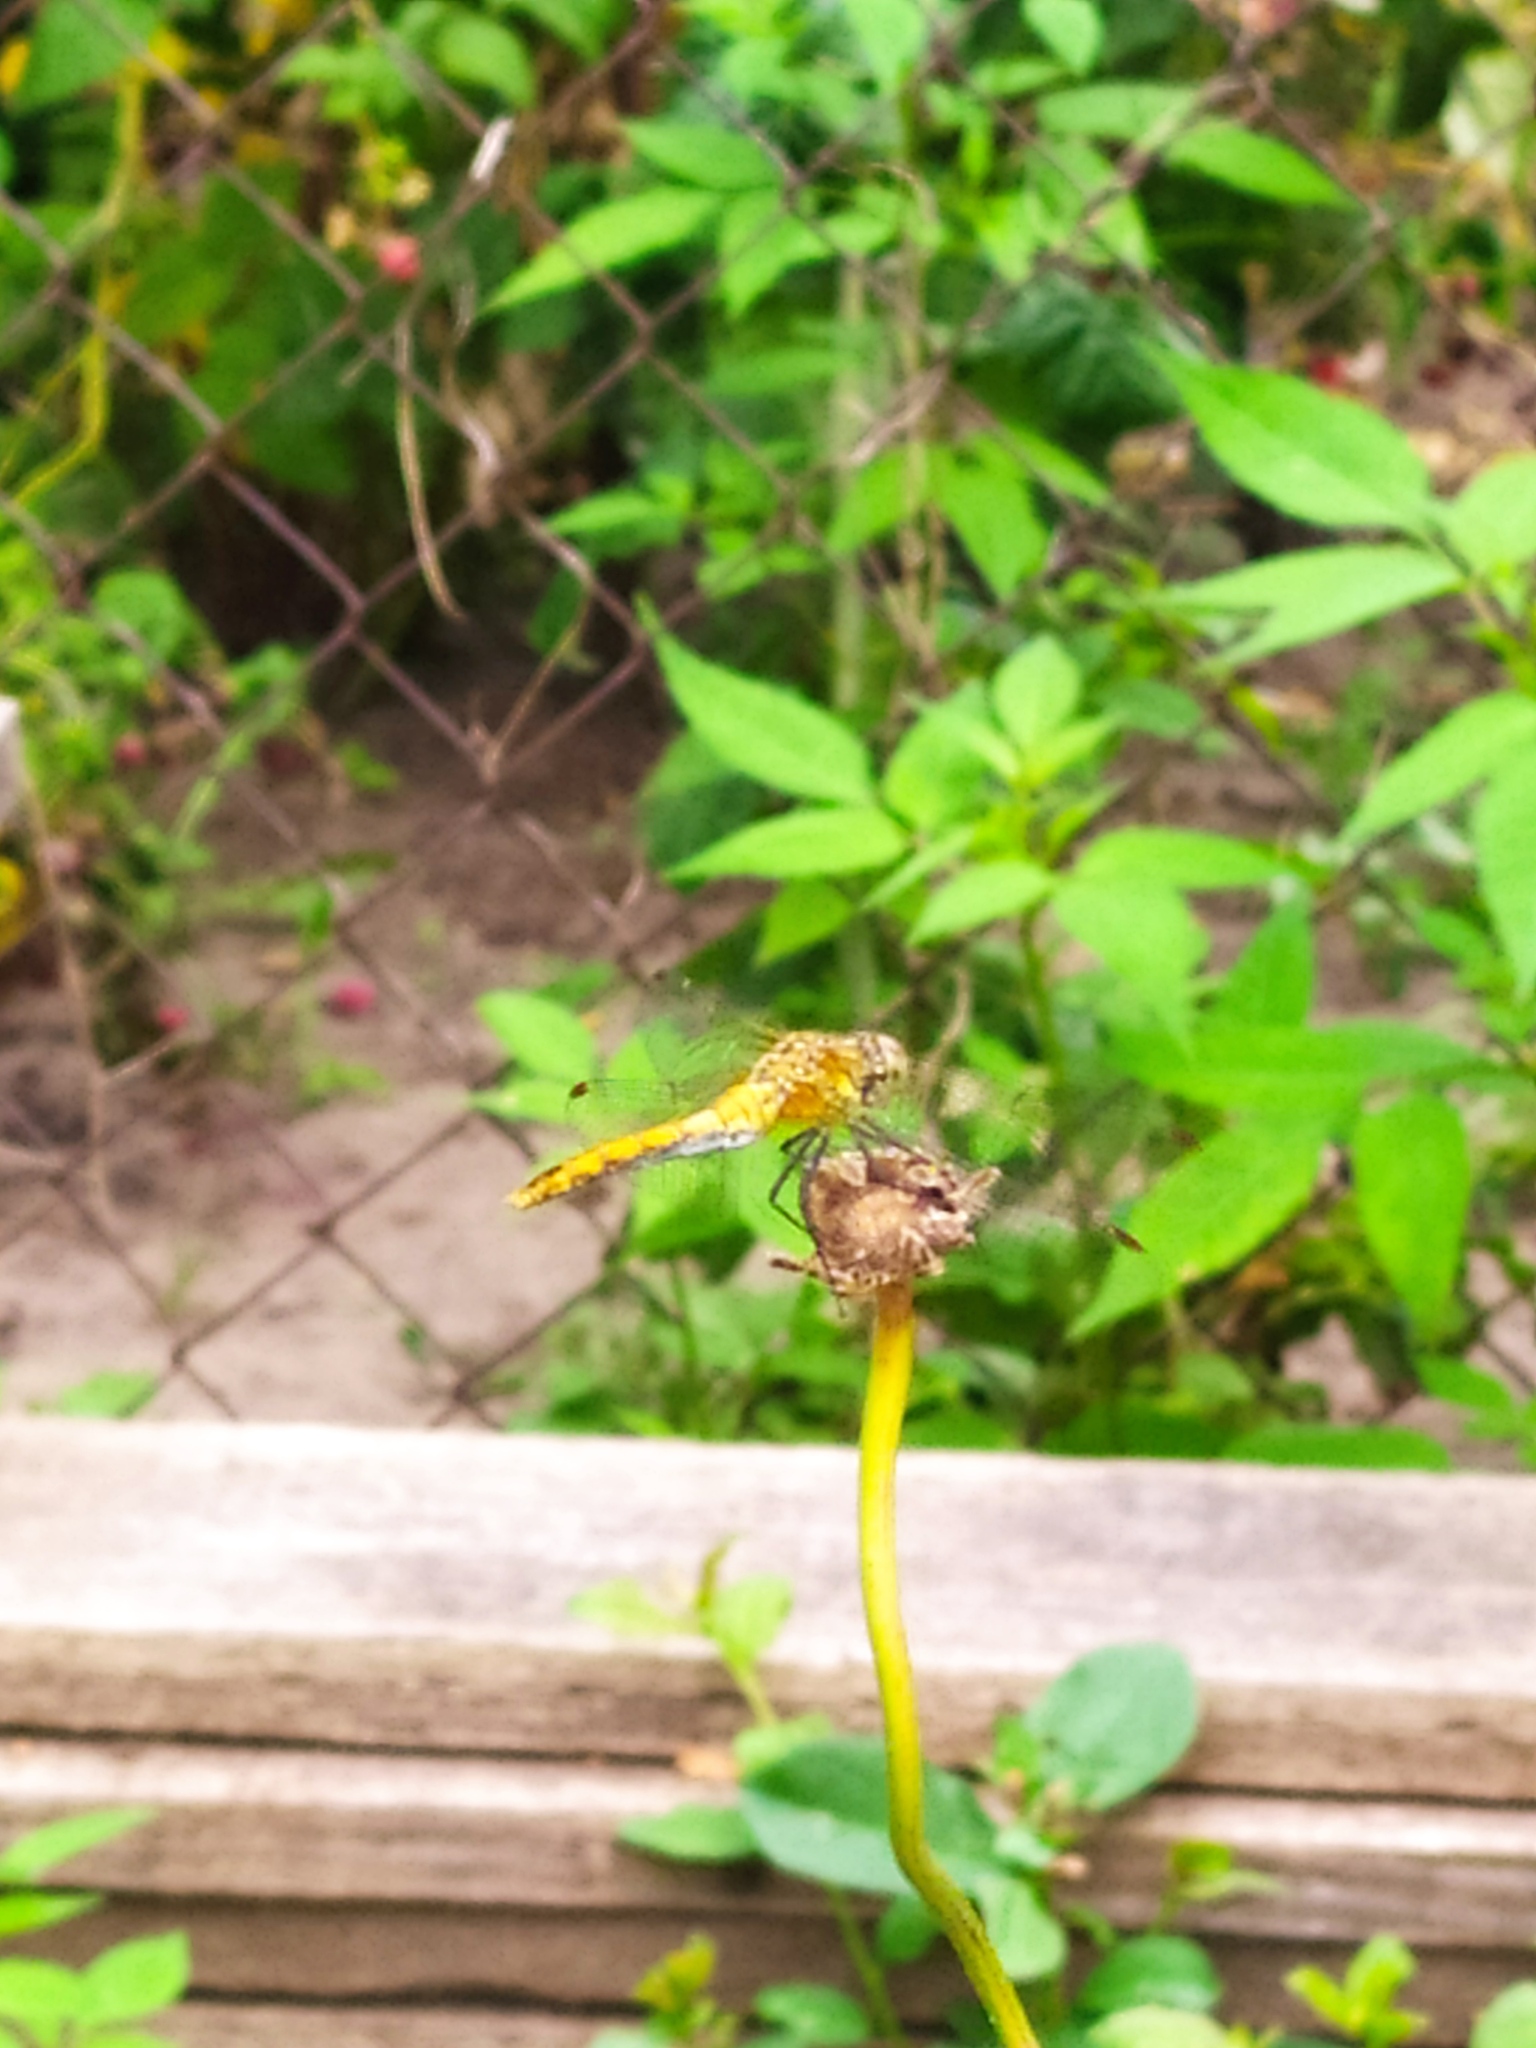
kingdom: Animalia
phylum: Arthropoda
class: Insecta
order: Odonata
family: Libellulidae
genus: Sympetrum
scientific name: Sympetrum sanguineum
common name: Ruddy darter
